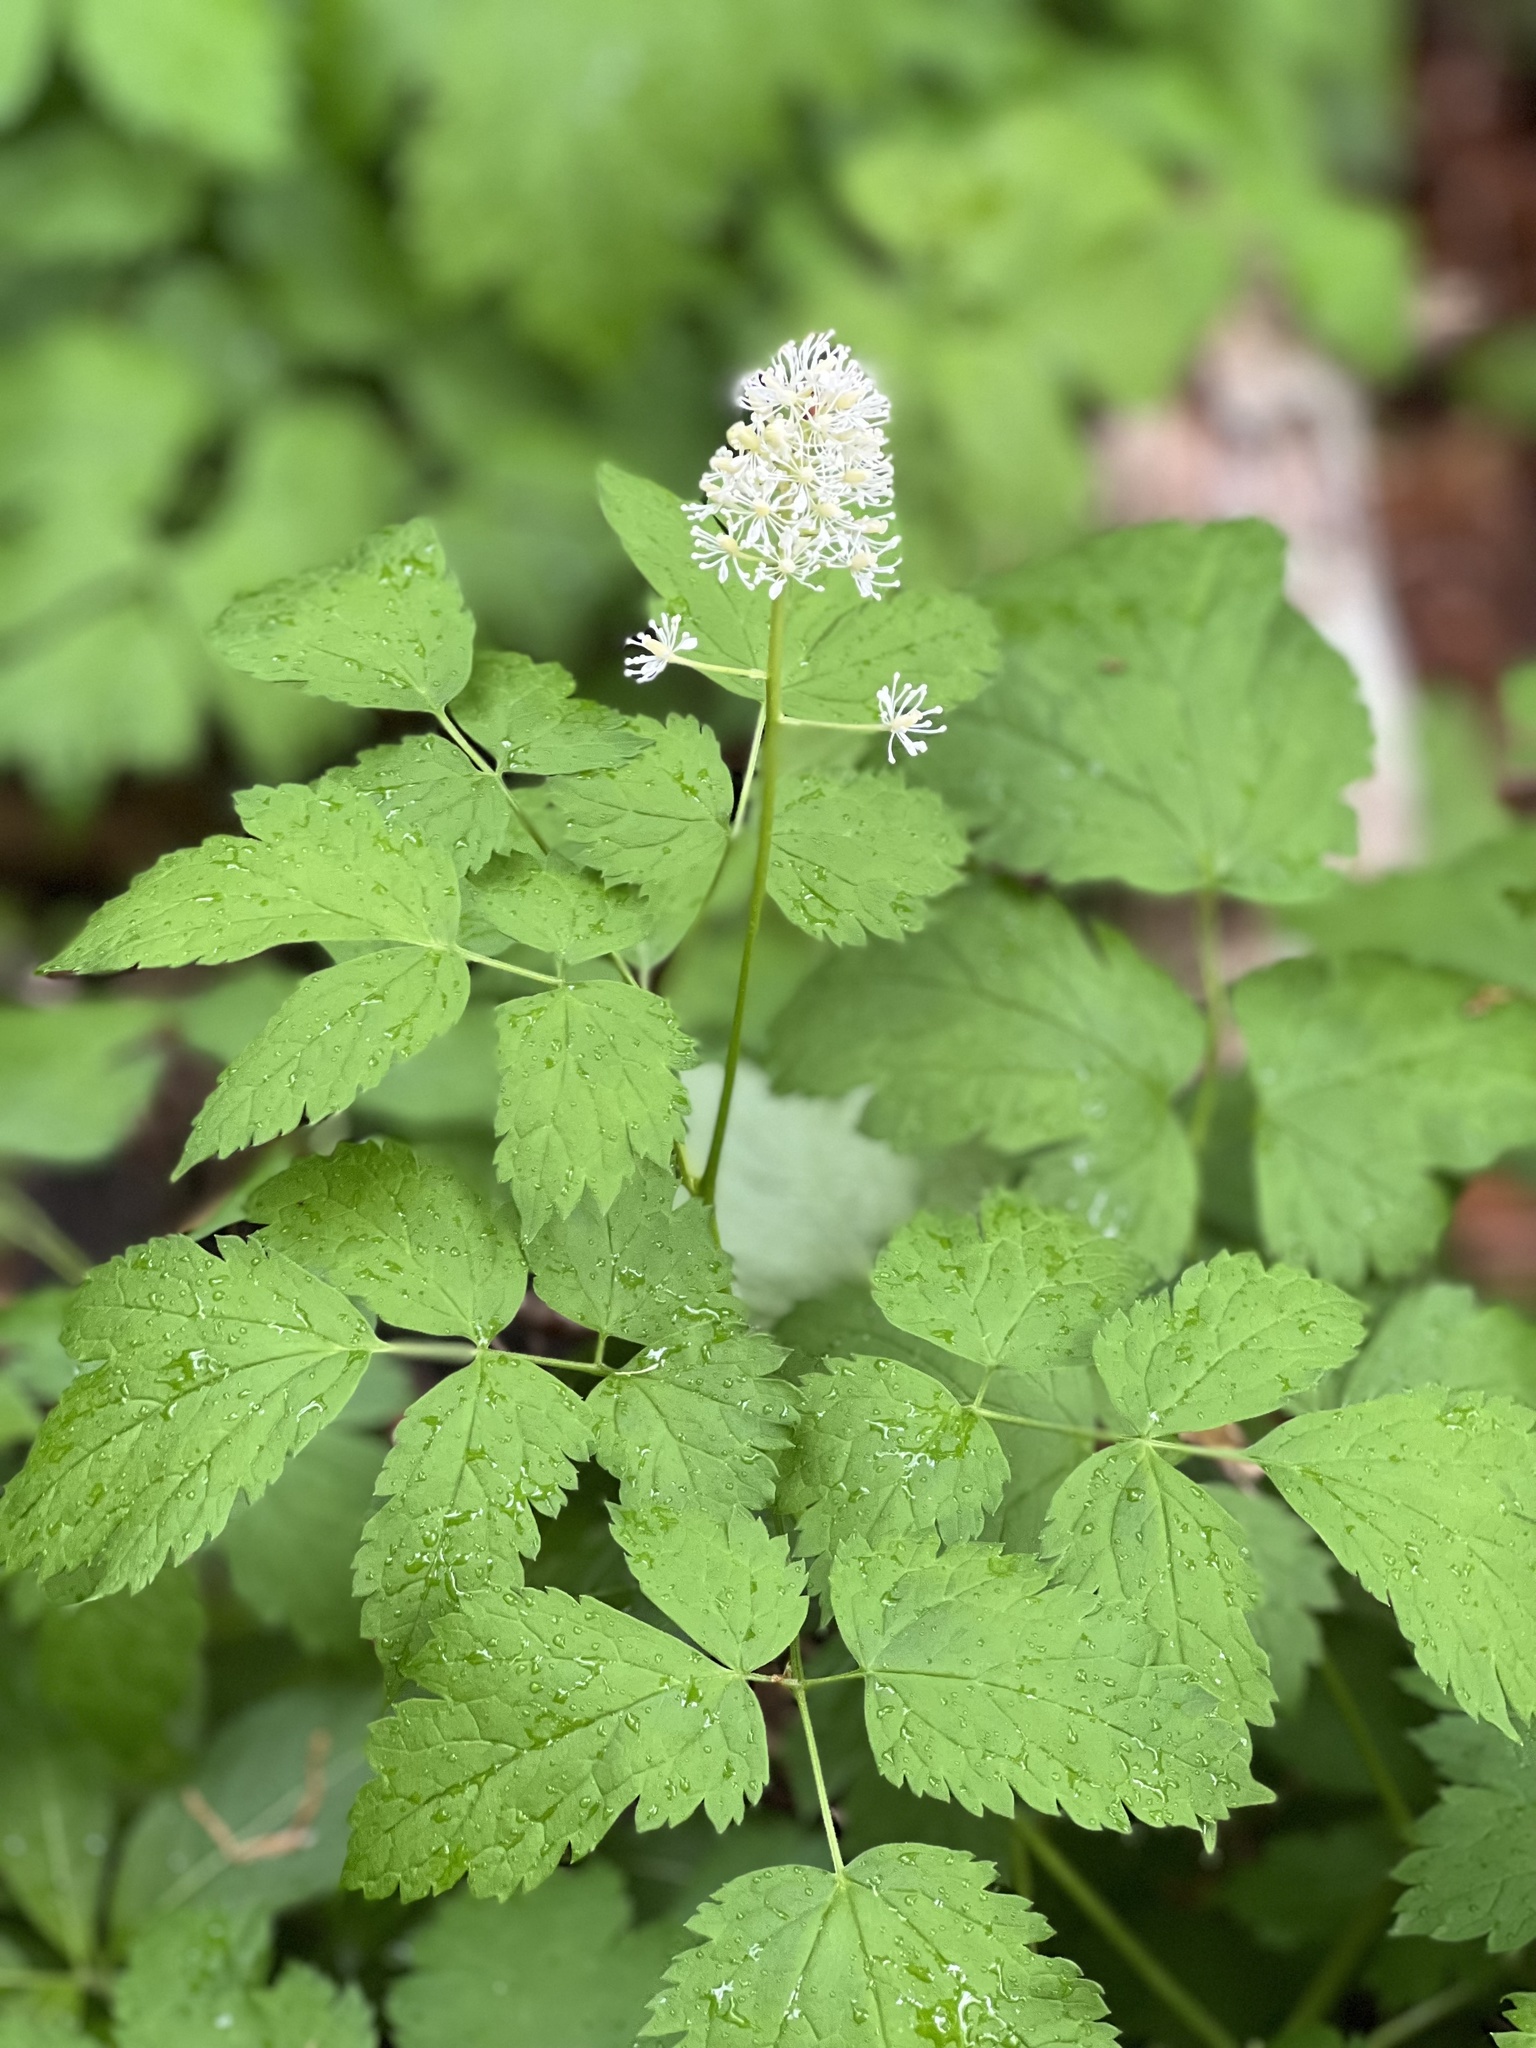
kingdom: Plantae
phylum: Tracheophyta
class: Magnoliopsida
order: Ranunculales
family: Ranunculaceae
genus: Actaea
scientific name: Actaea spicata
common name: Baneberry
